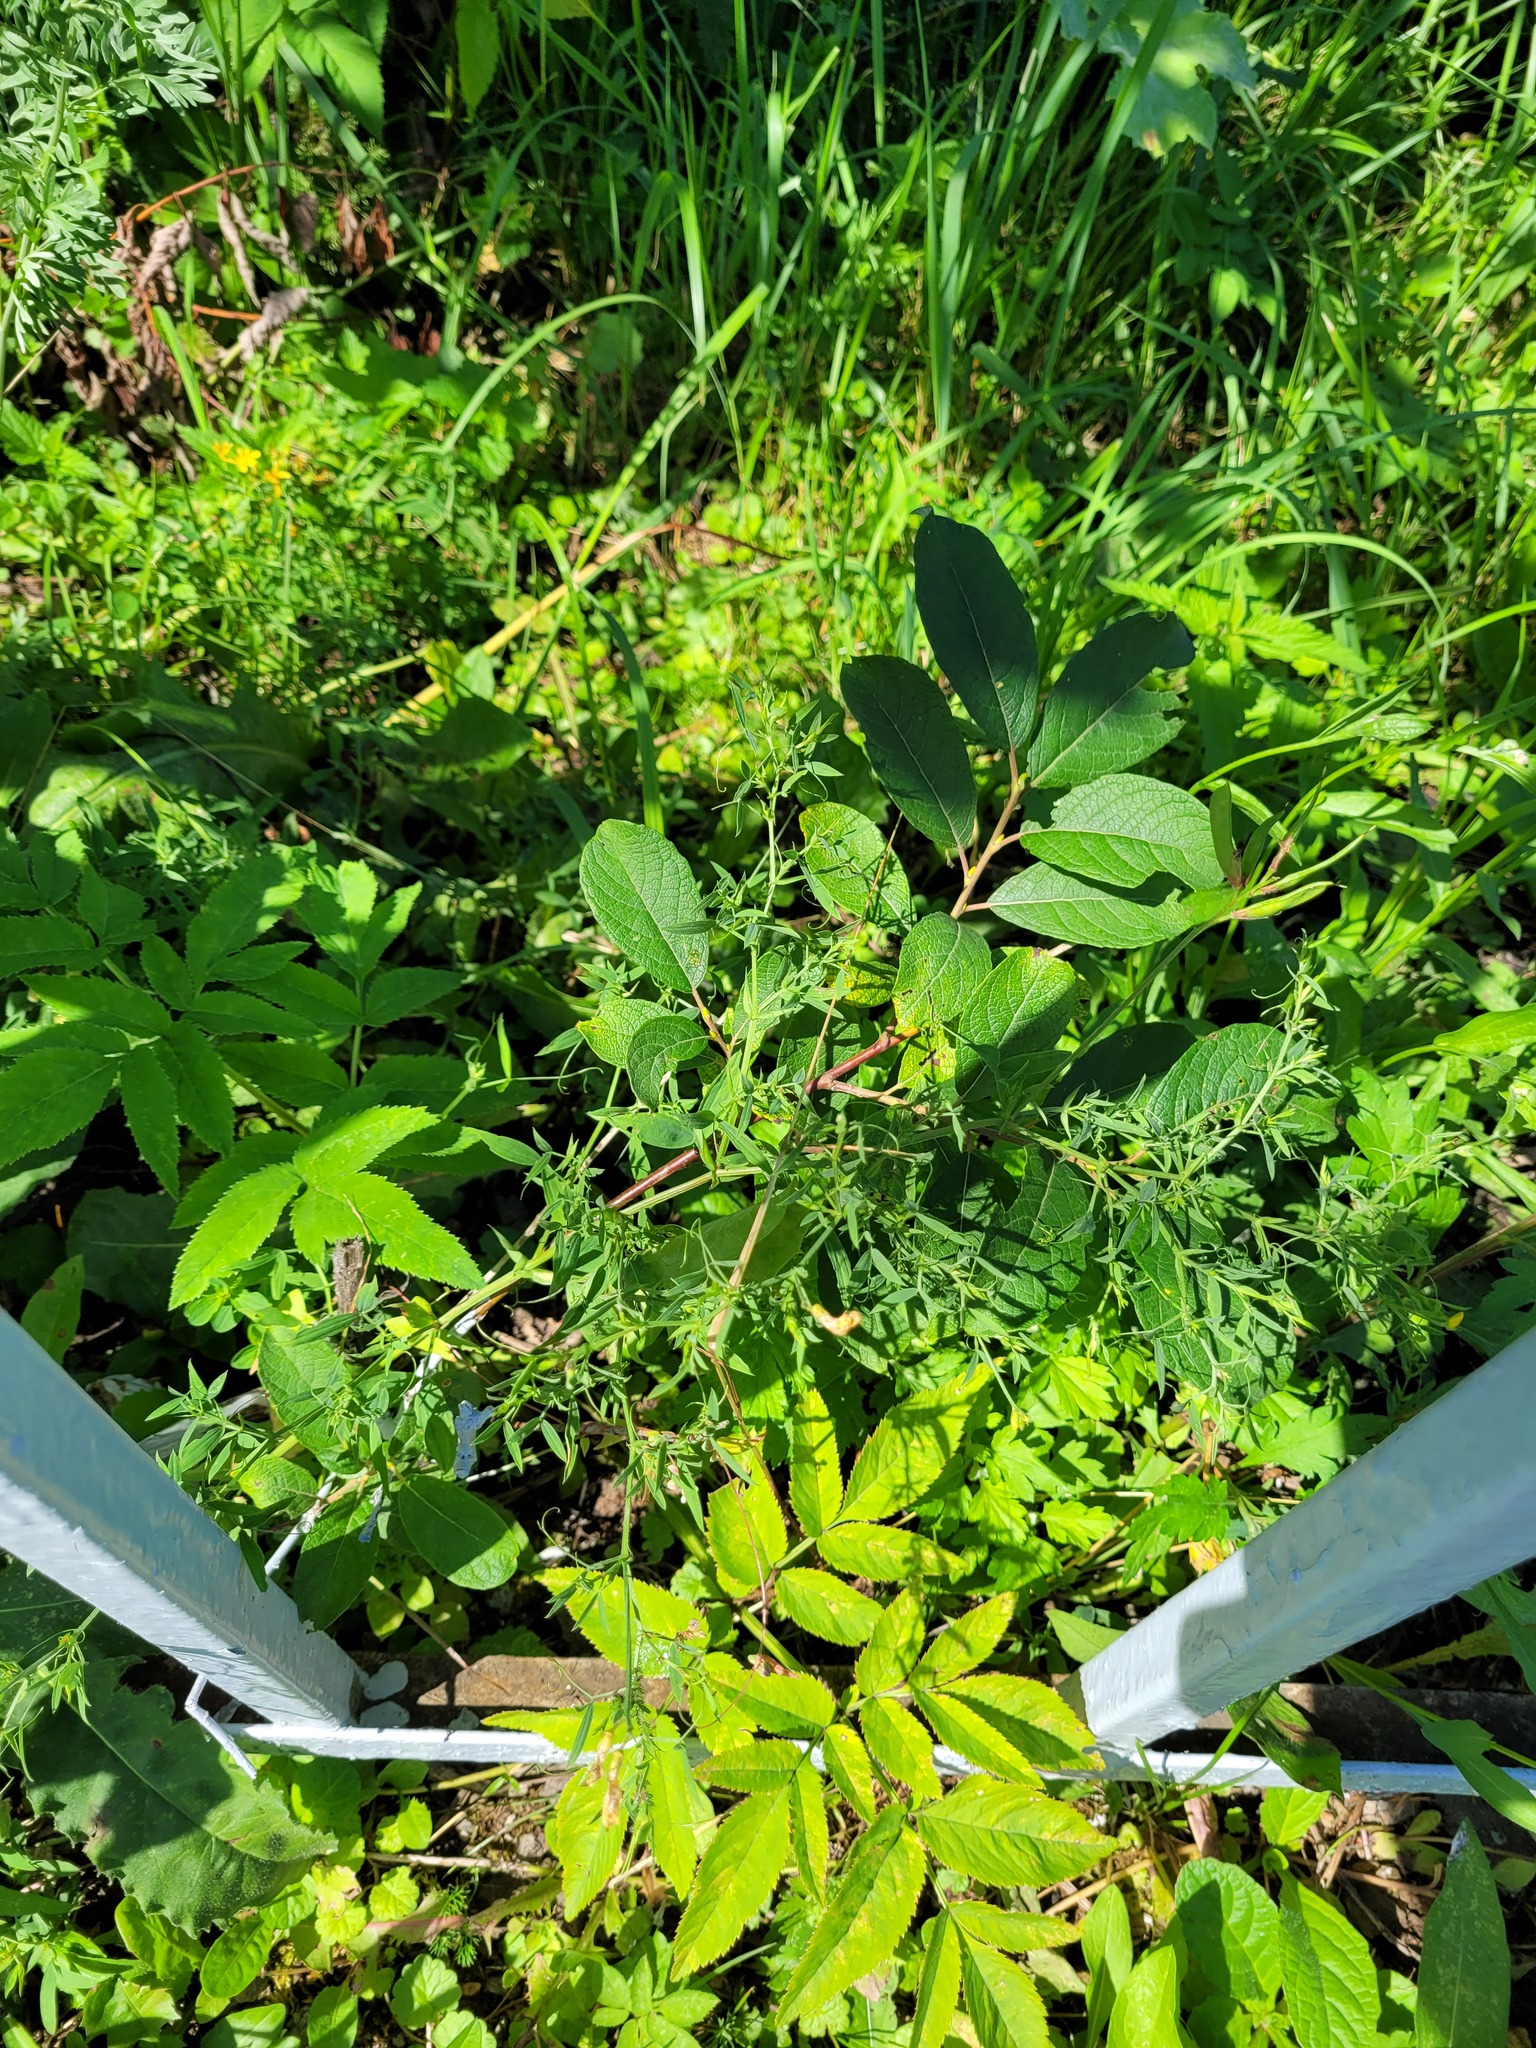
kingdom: Plantae
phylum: Tracheophyta
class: Magnoliopsida
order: Fabales
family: Fabaceae
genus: Lathyrus
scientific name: Lathyrus pratensis
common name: Meadow vetchling
